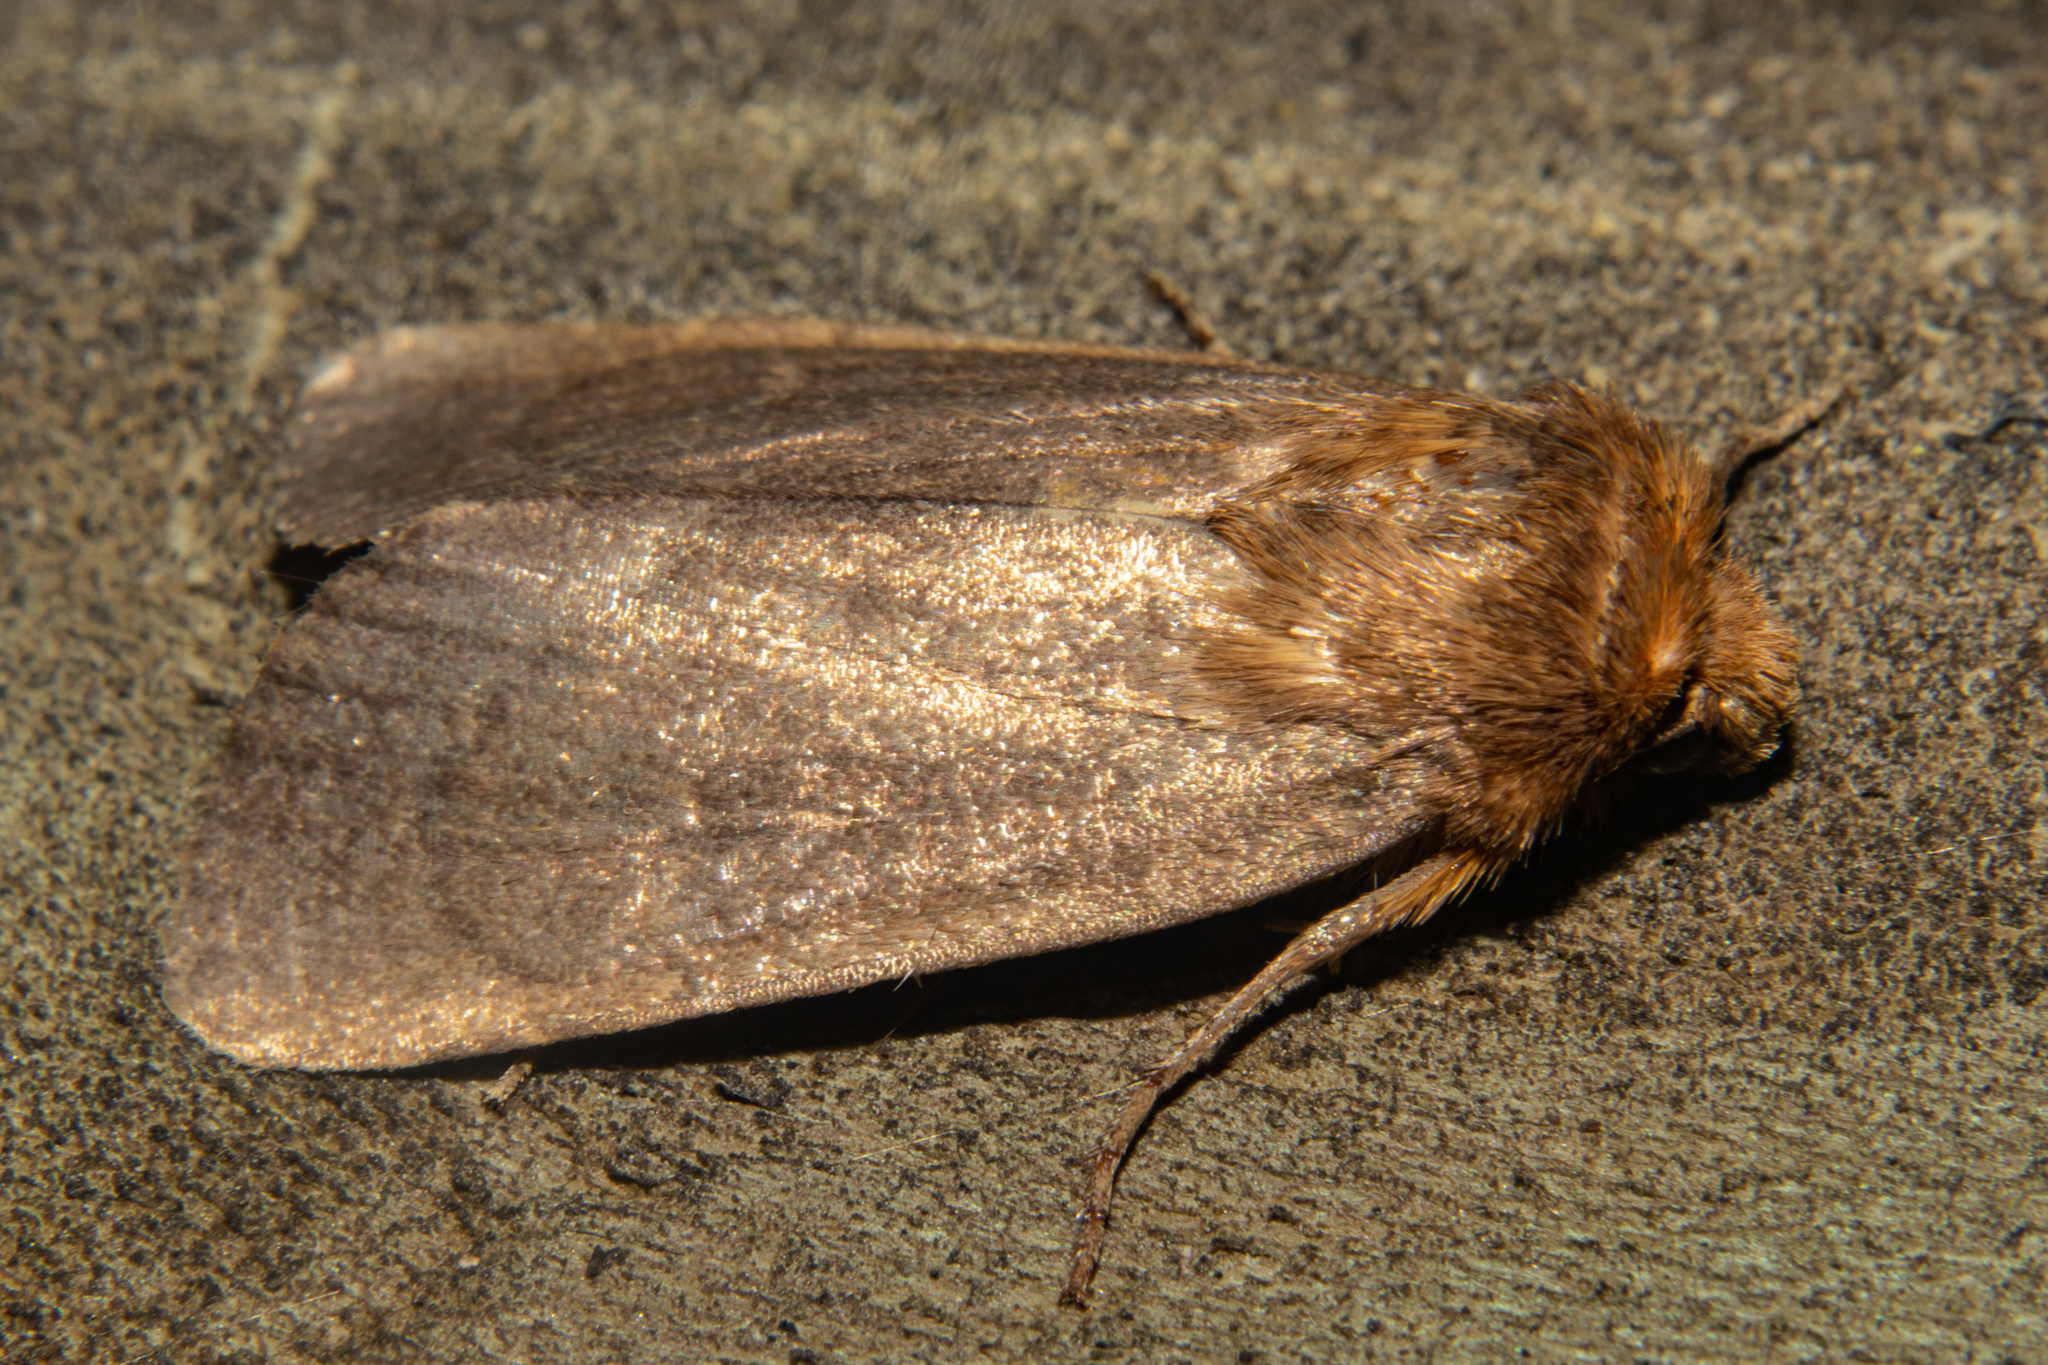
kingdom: Animalia
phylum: Arthropoda
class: Insecta
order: Lepidoptera
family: Noctuidae
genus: Bityla
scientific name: Bityla defigurata
